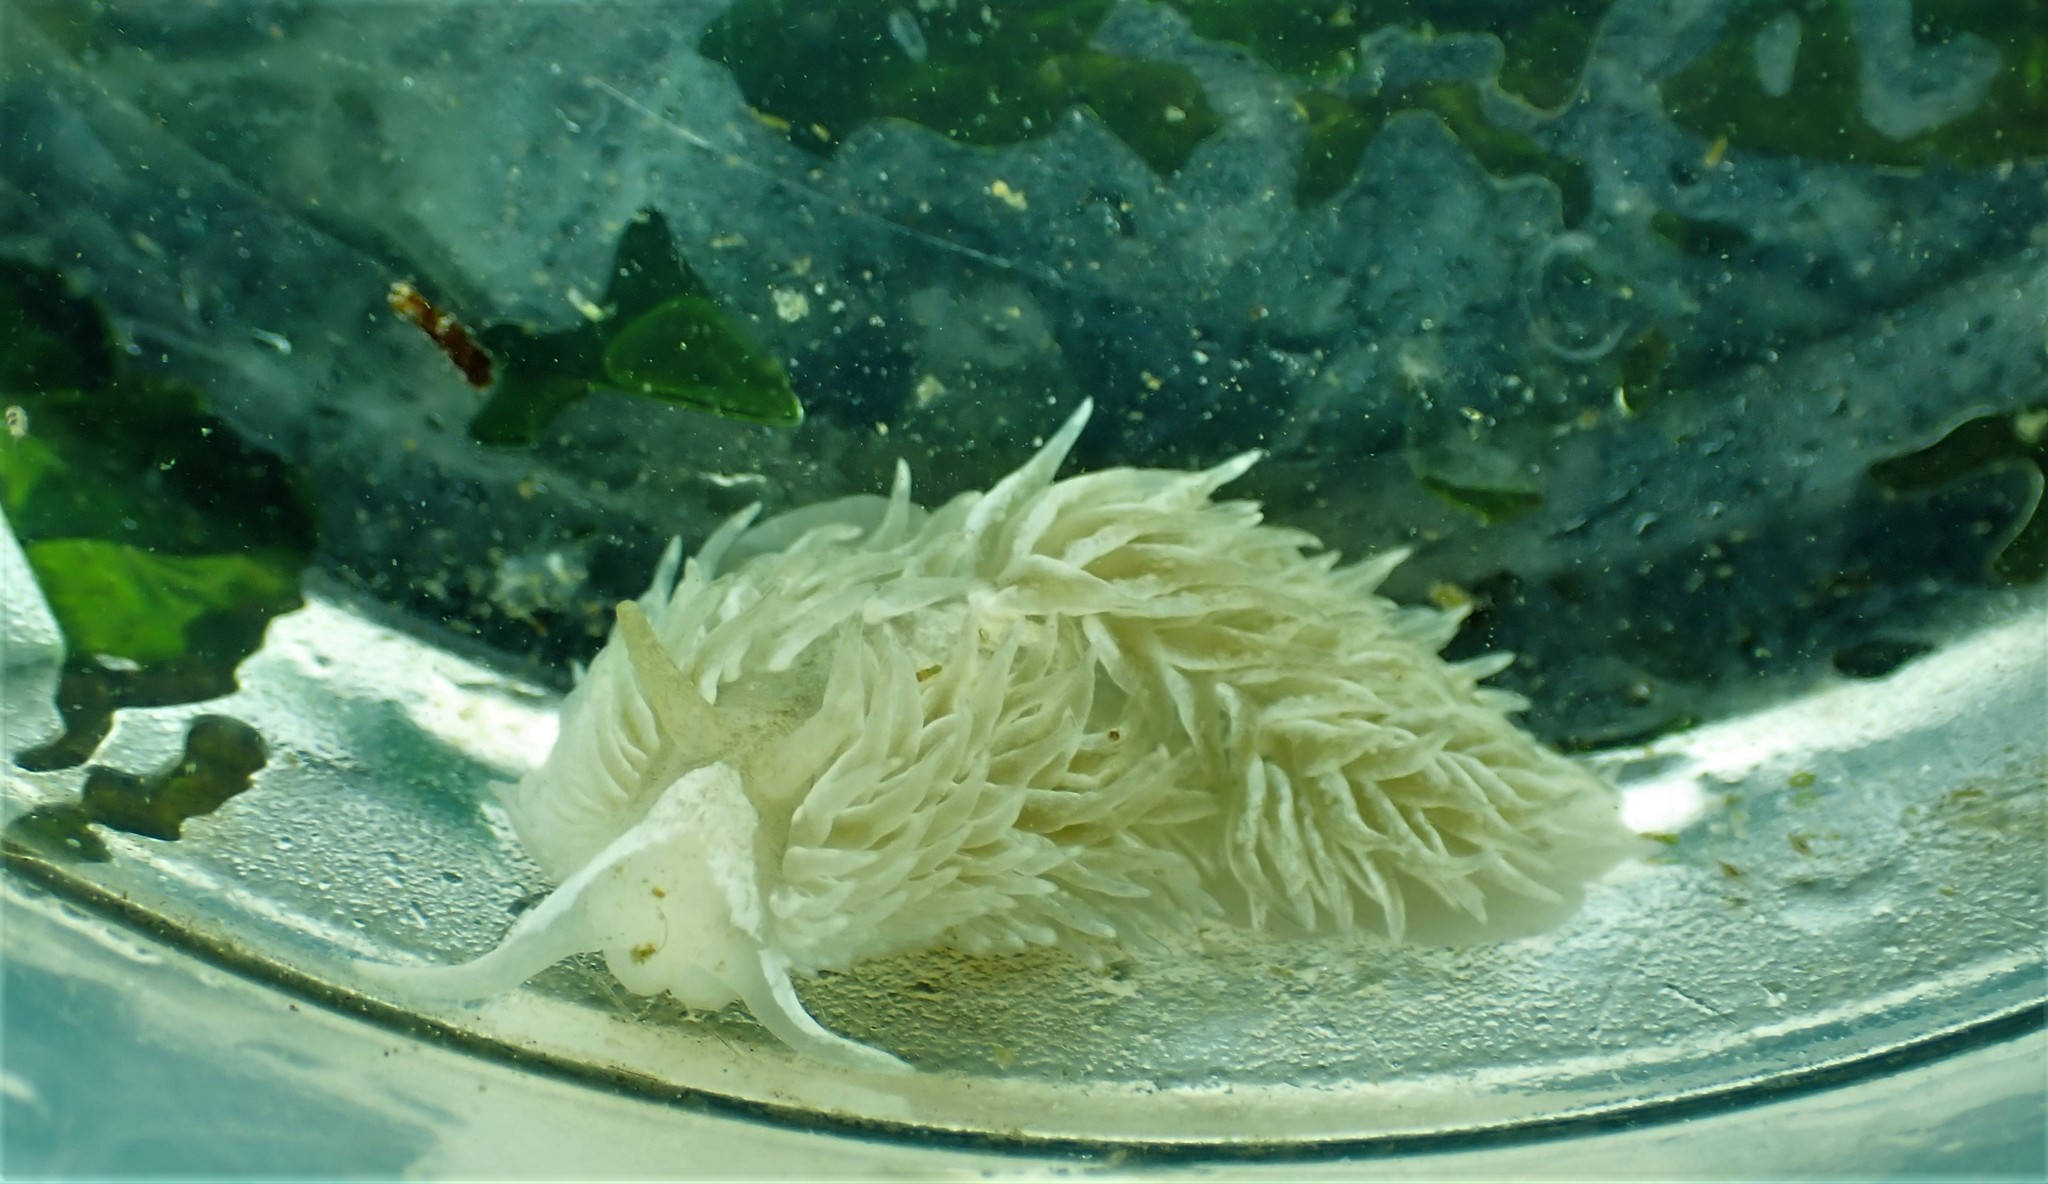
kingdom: Animalia
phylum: Mollusca
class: Gastropoda
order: Nudibranchia
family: Aeolidiidae
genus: Aeolidia
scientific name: Aeolidia loui
